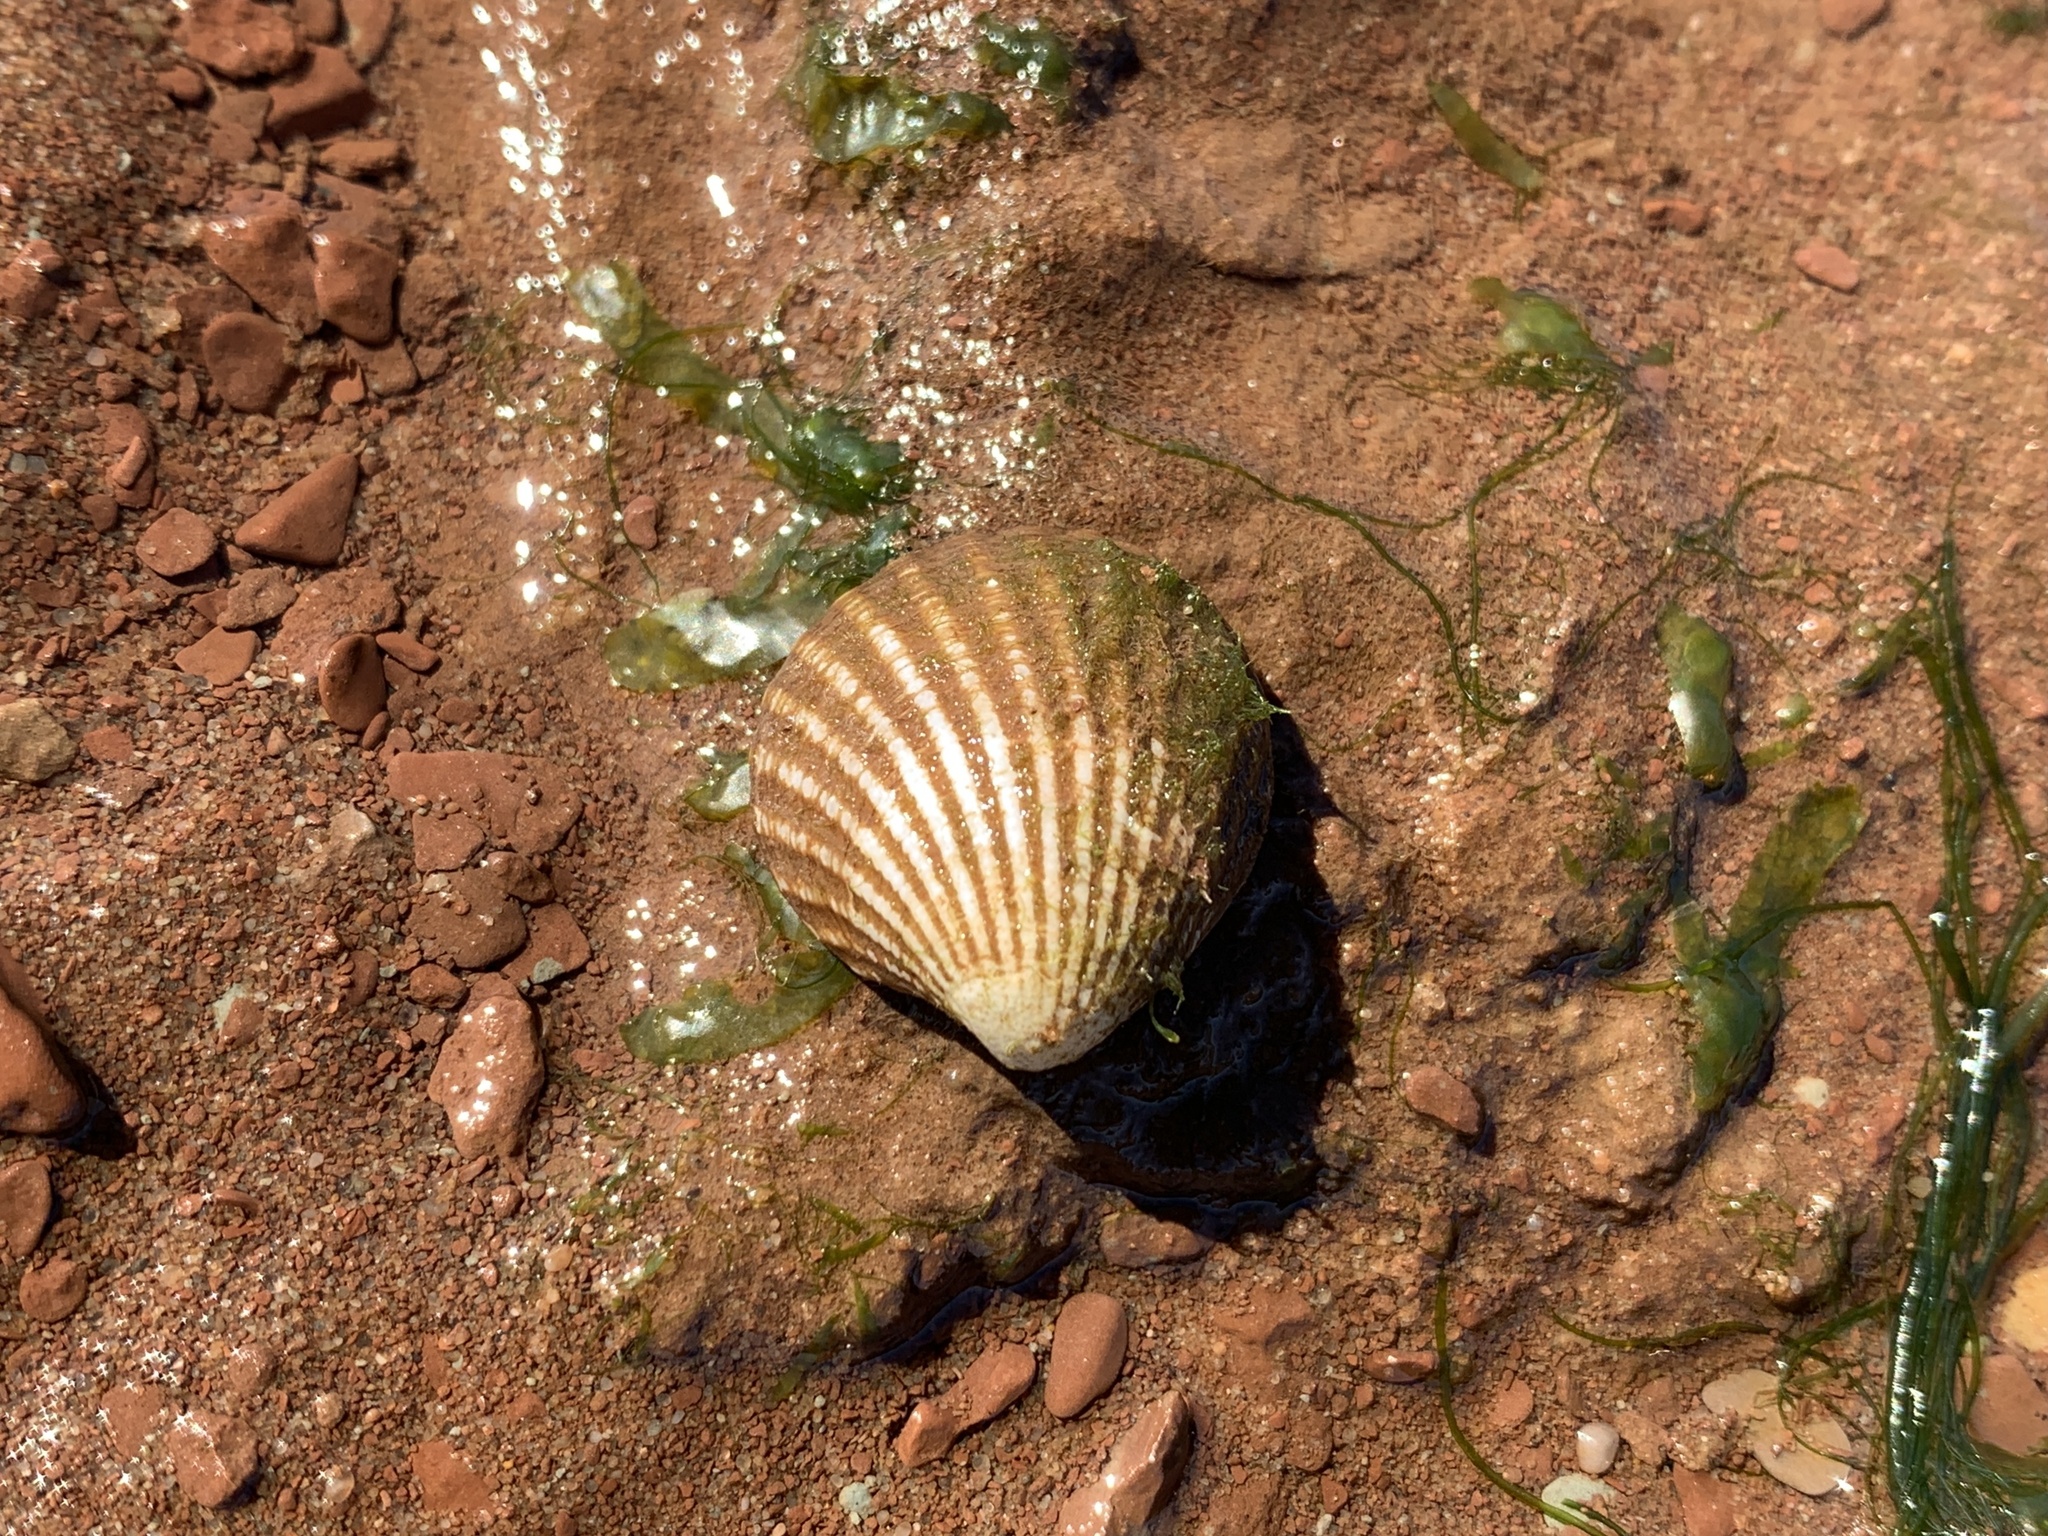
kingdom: Animalia
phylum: Mollusca
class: Bivalvia
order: Carditida
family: Carditidae
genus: Cyclocardia
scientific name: Cyclocardia borealis
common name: Northern cyclocardia
